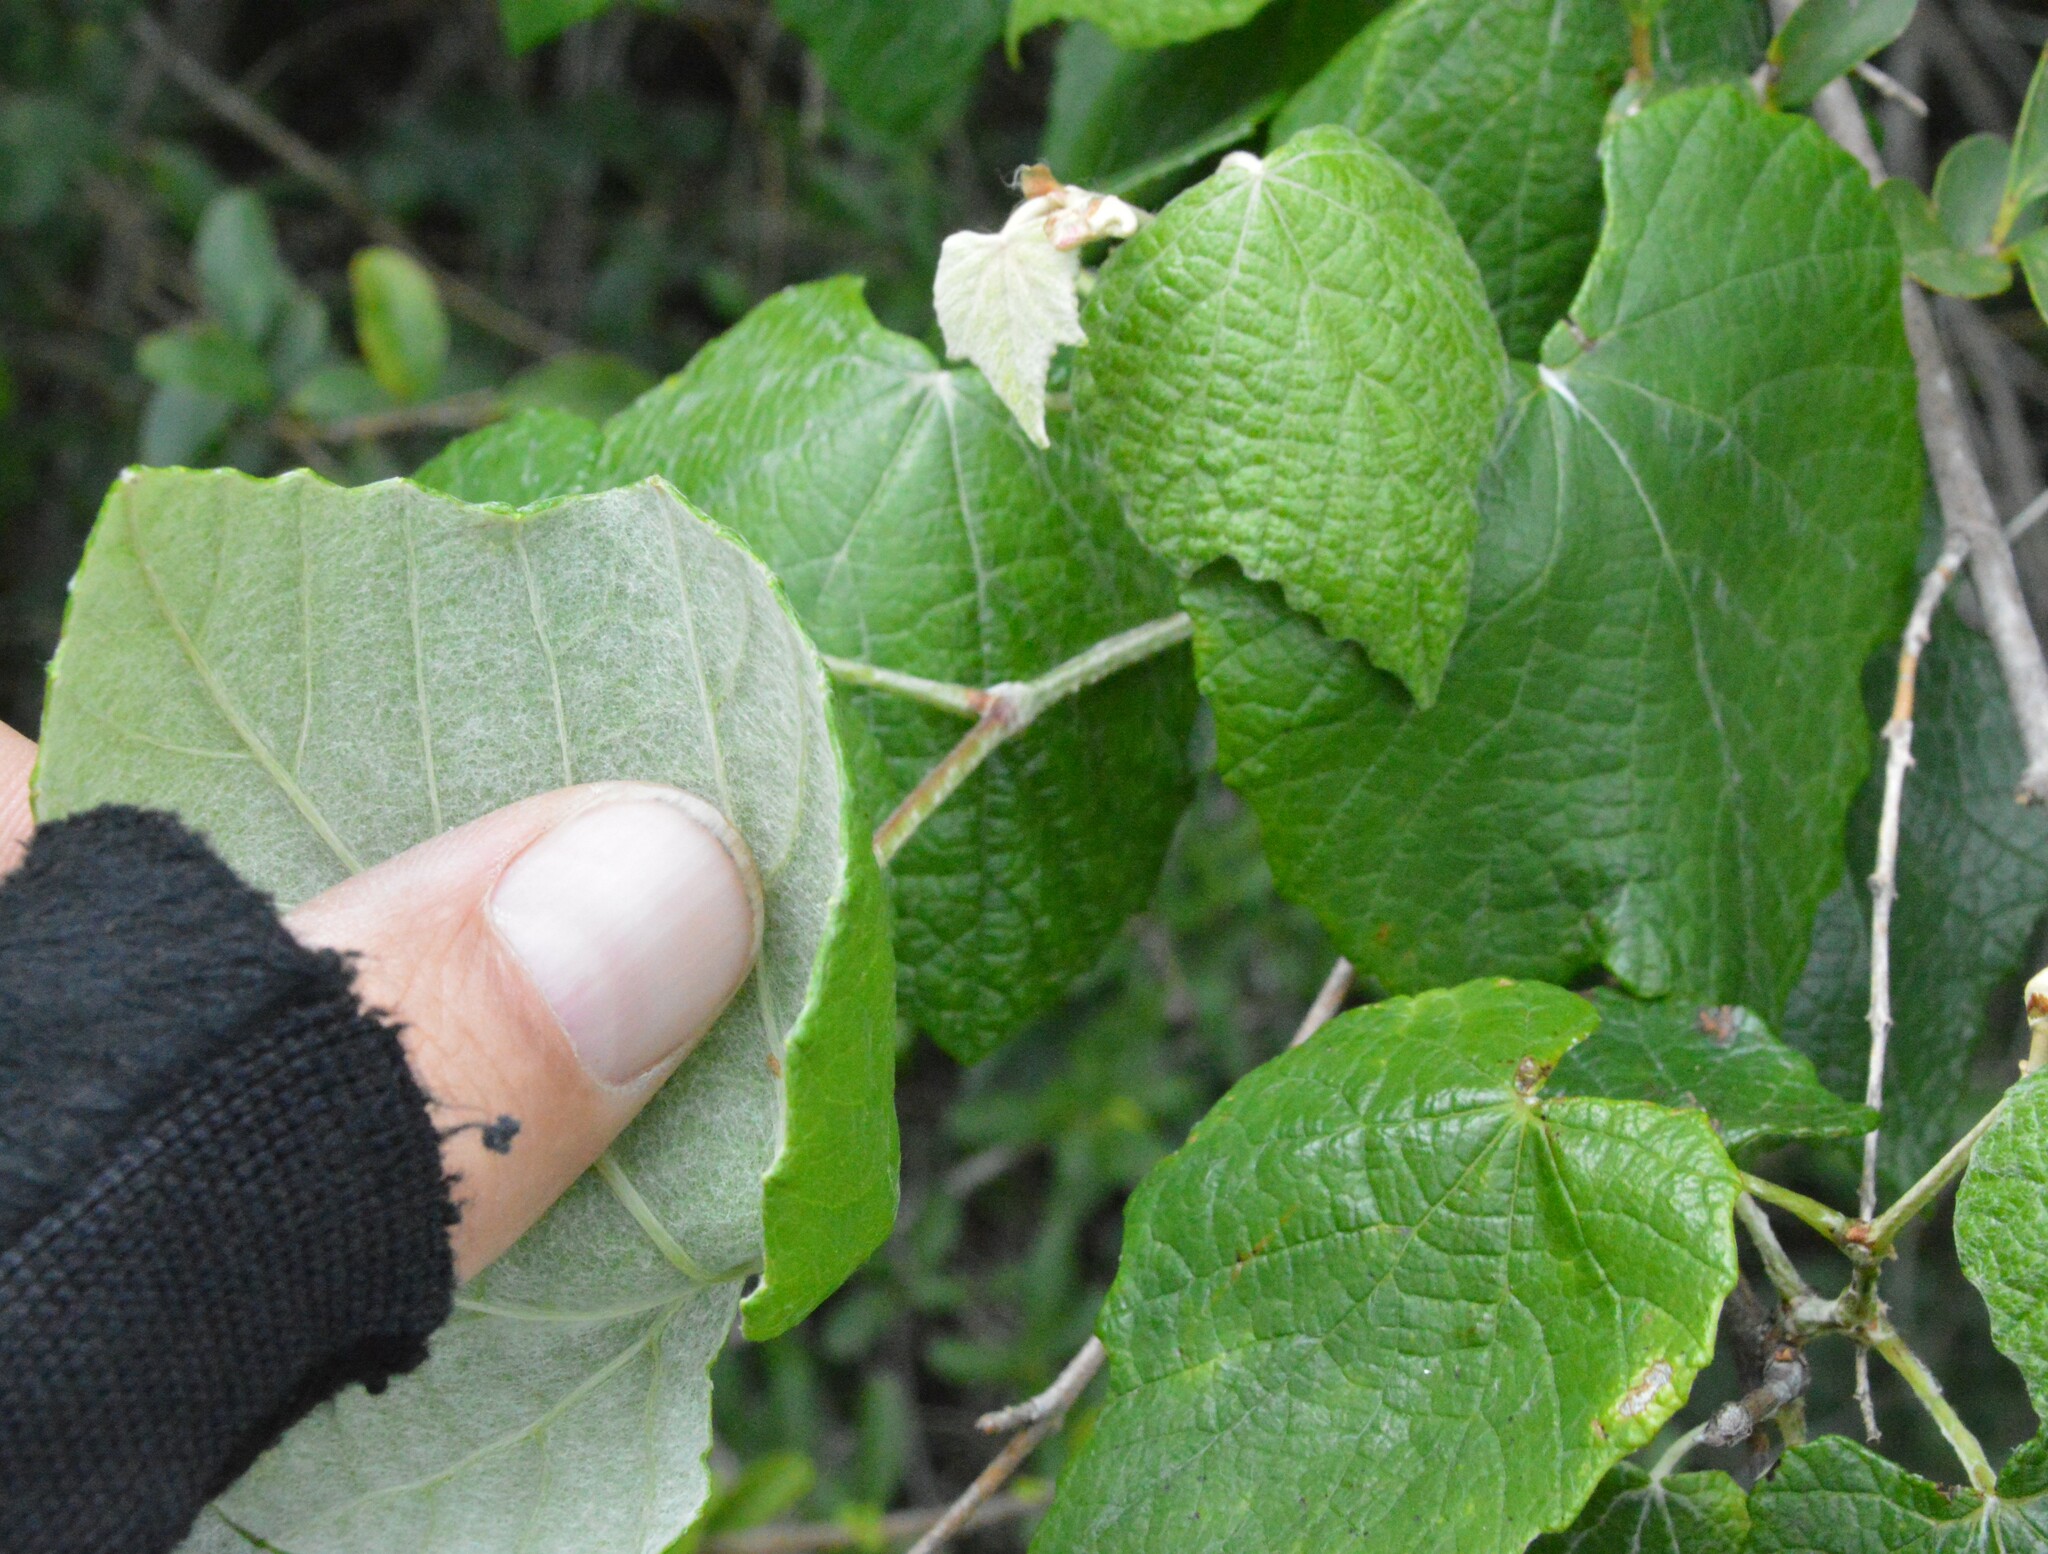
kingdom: Plantae
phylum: Tracheophyta
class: Magnoliopsida
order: Vitales
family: Vitaceae
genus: Vitis
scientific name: Vitis mustangensis
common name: Mustang grape
